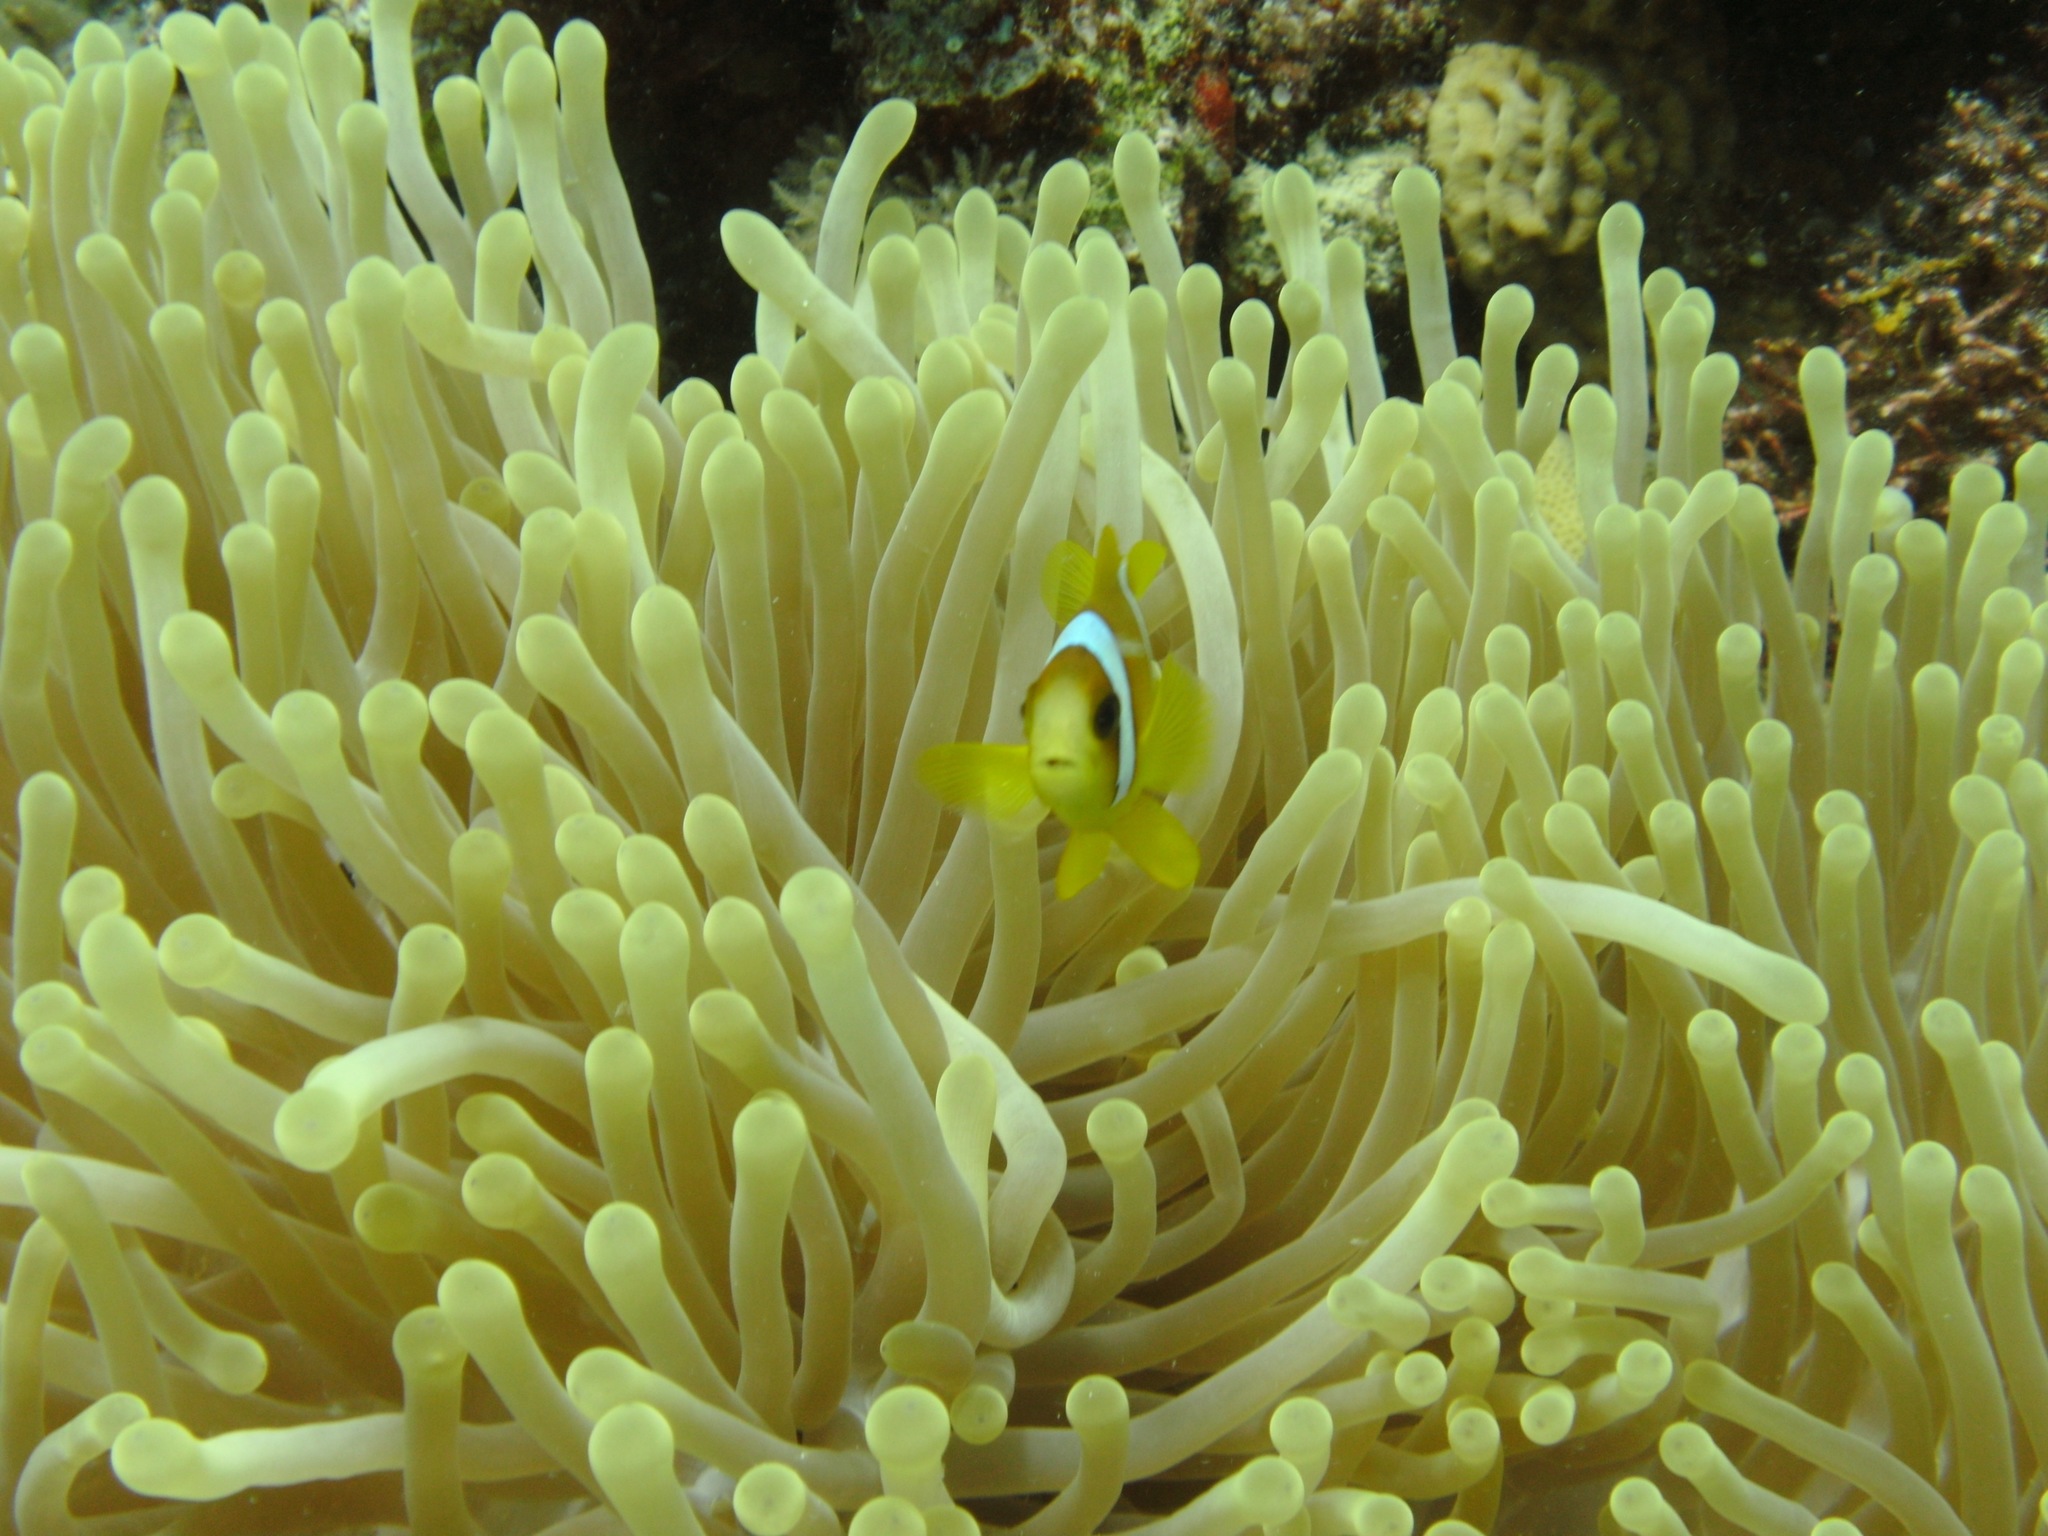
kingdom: Animalia
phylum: Chordata
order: Perciformes
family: Pomacentridae
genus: Amphiprion
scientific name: Amphiprion bicinctus
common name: Two-banded anemonefish
